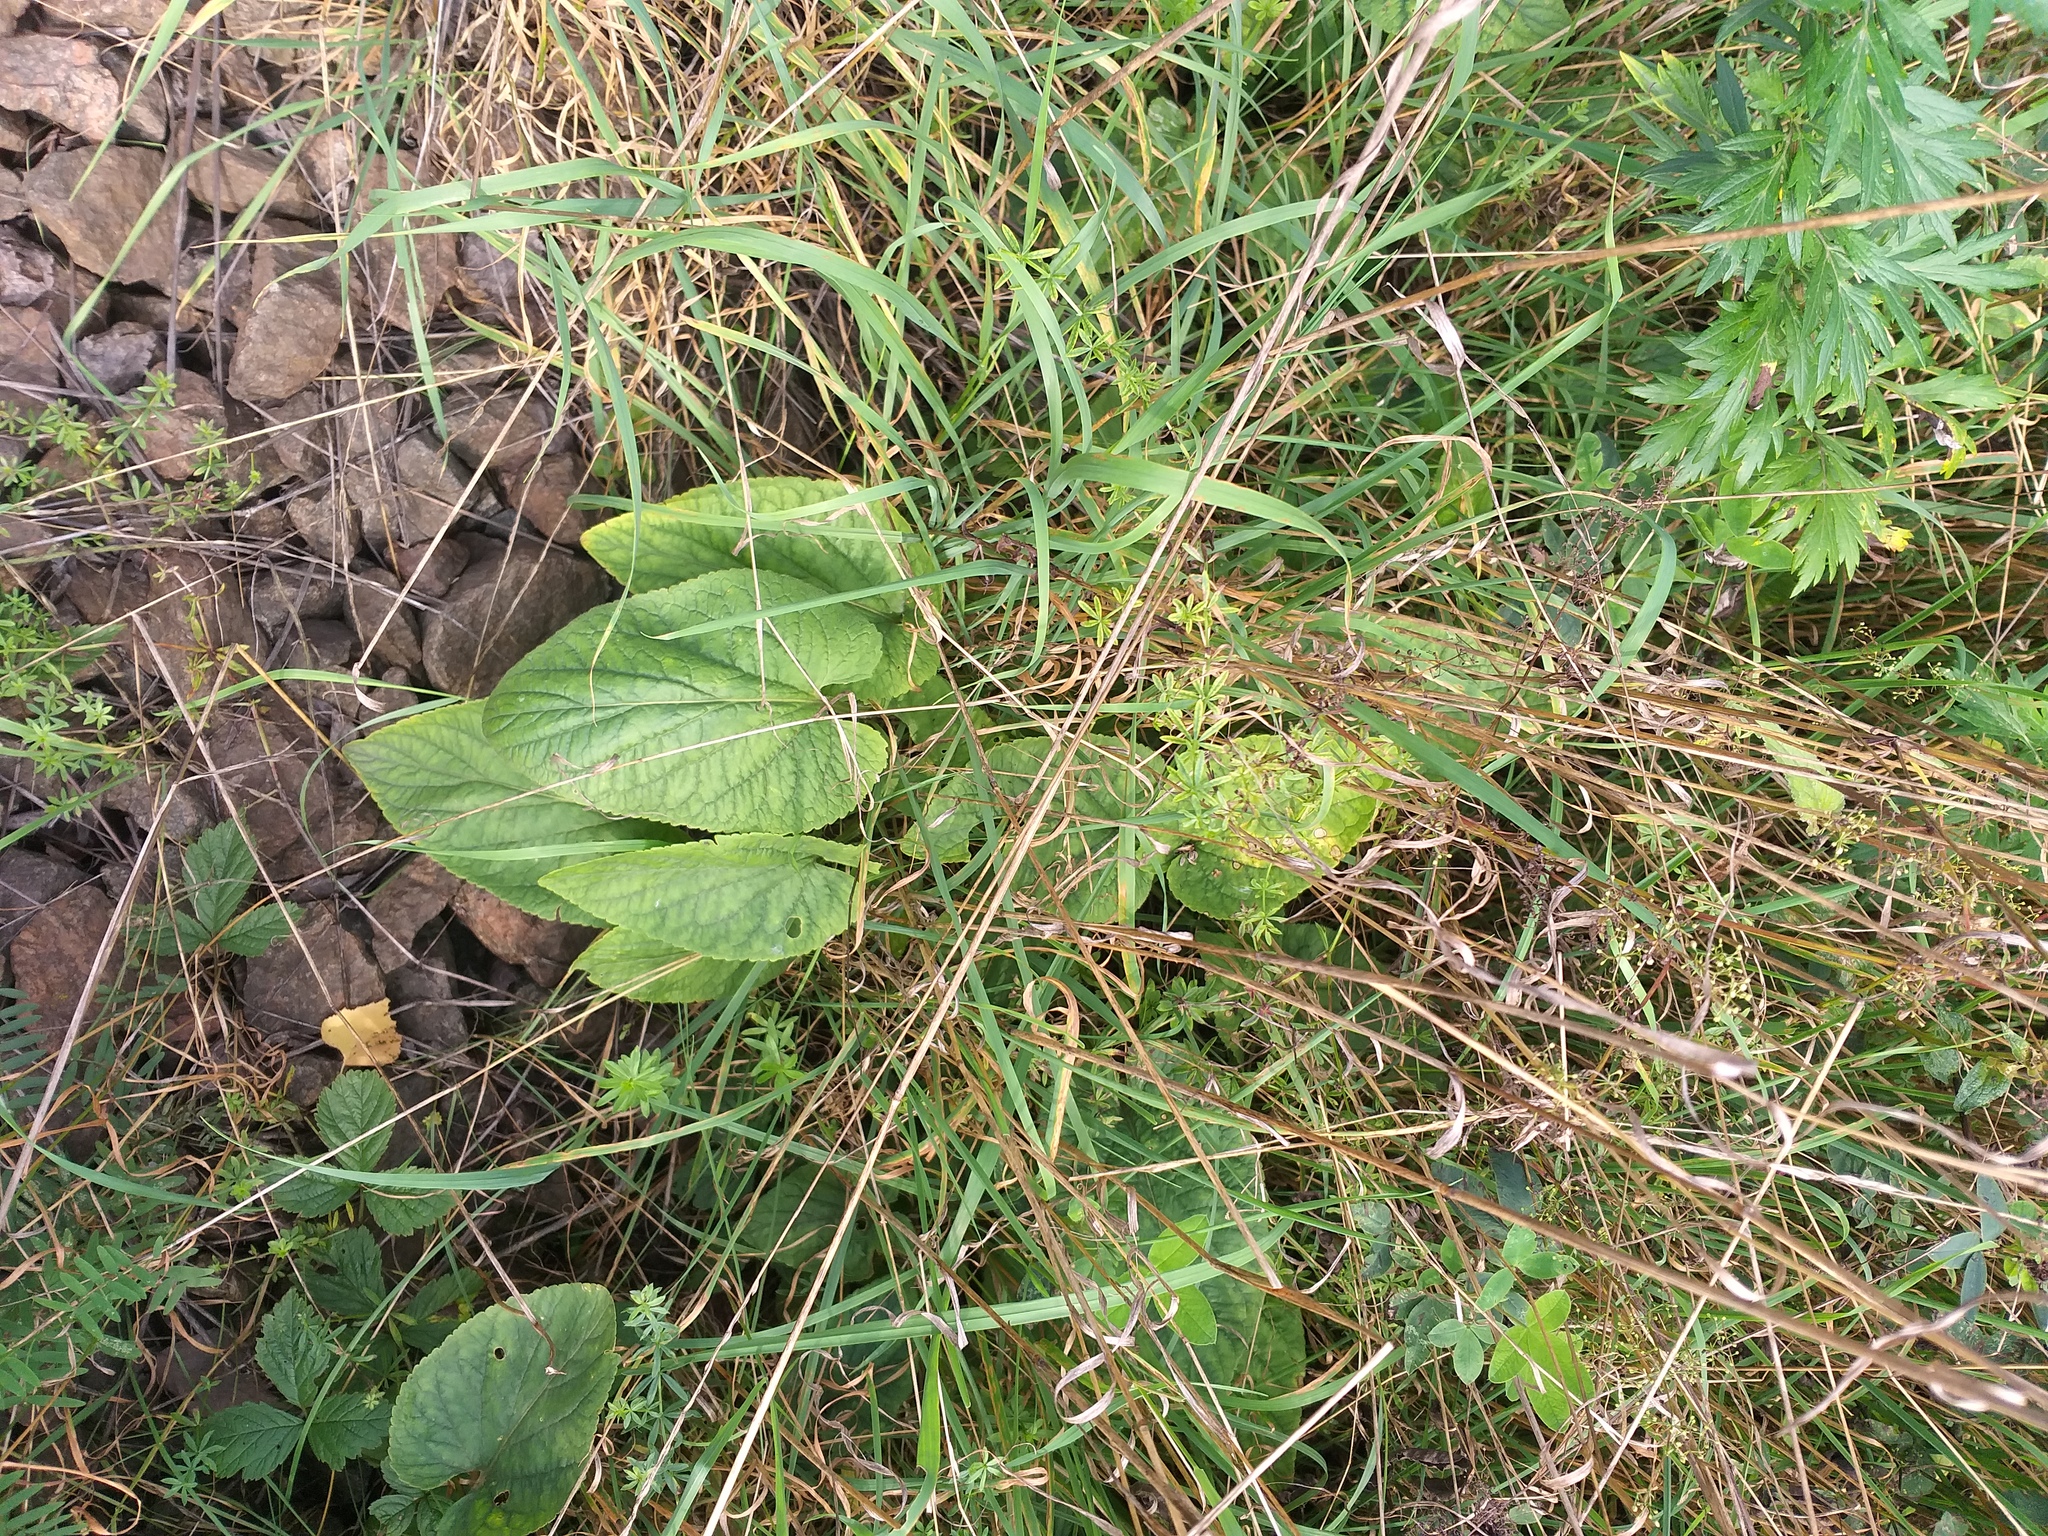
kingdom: Plantae
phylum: Tracheophyta
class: Magnoliopsida
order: Malpighiales
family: Violaceae
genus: Viola
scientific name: Viola hirta
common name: Hairy violet
